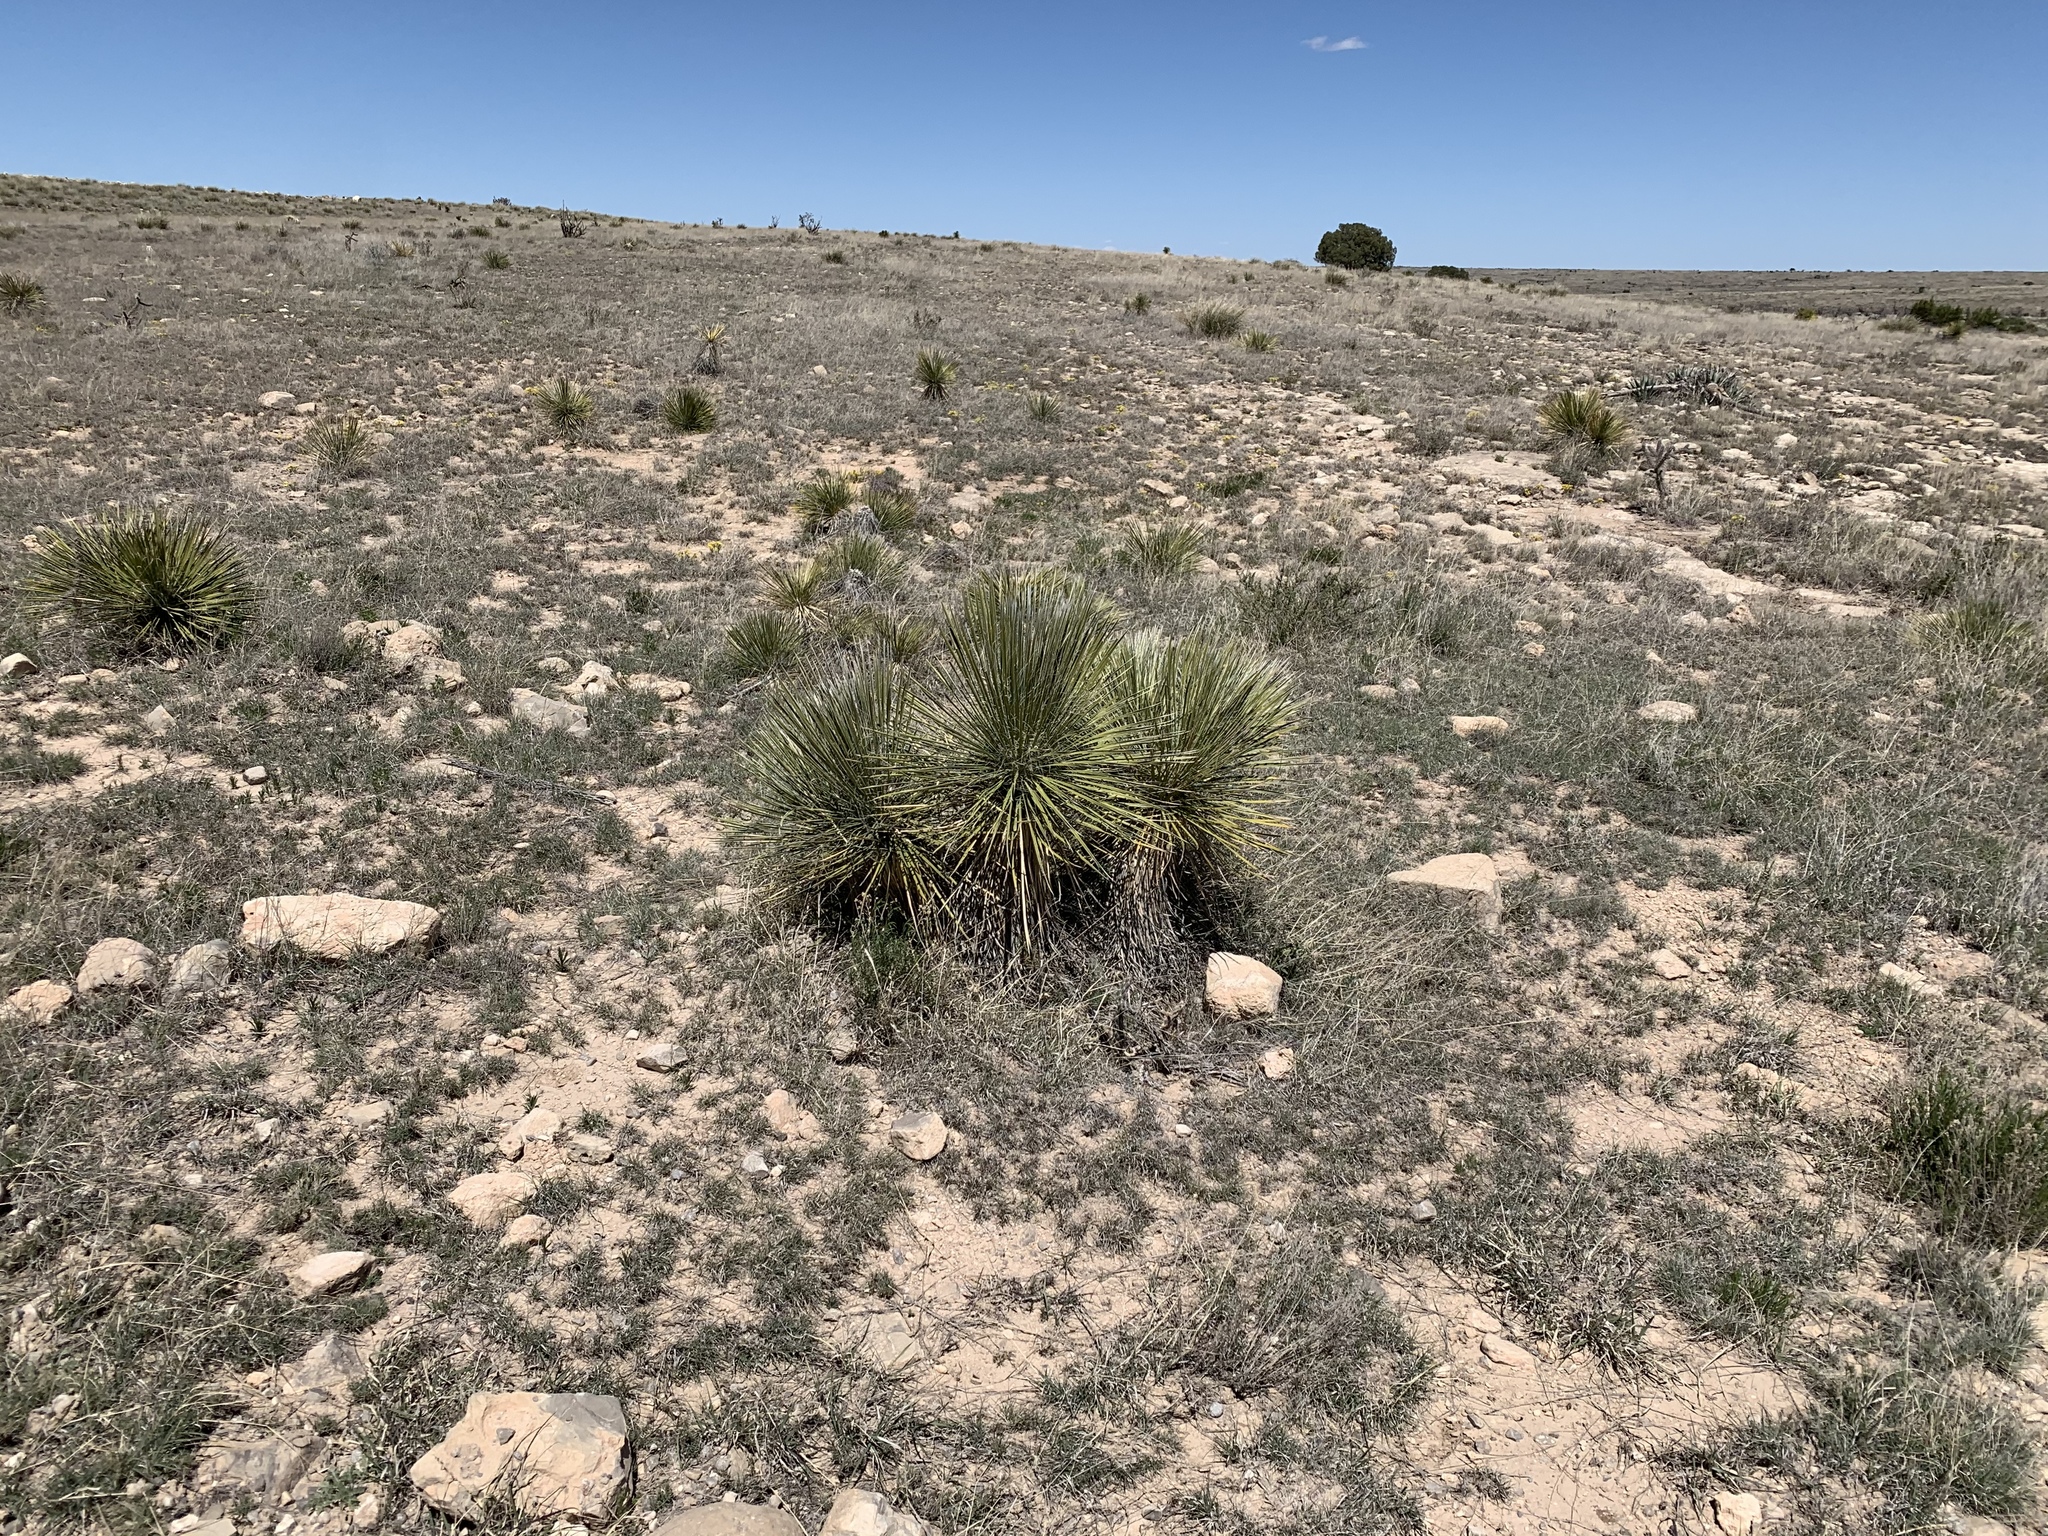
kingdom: Plantae
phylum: Tracheophyta
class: Liliopsida
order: Asparagales
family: Asparagaceae
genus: Yucca
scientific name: Yucca elata
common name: Palmella
